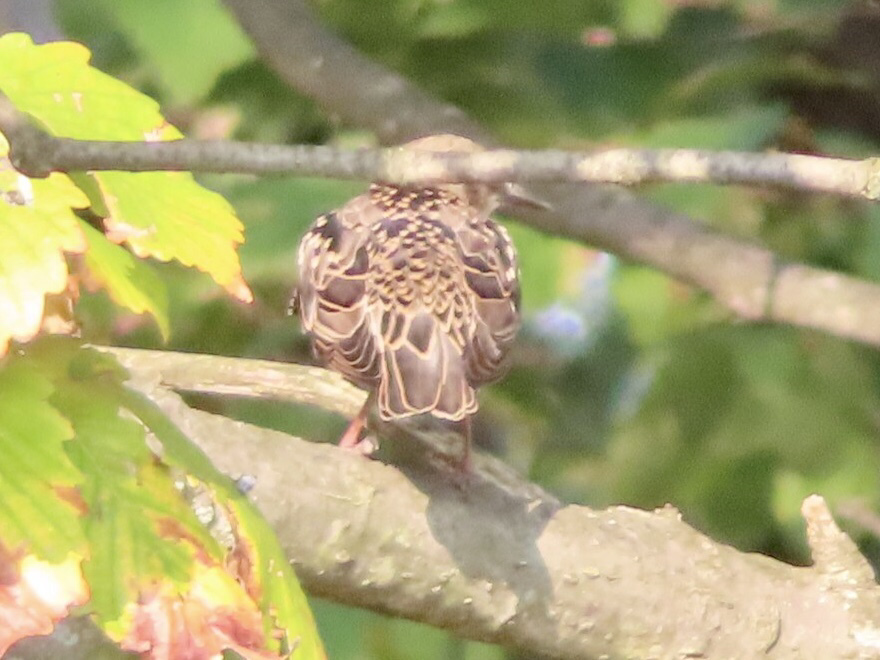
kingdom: Animalia
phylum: Chordata
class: Aves
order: Passeriformes
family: Sturnidae
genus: Sturnus
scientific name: Sturnus vulgaris
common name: Common starling
